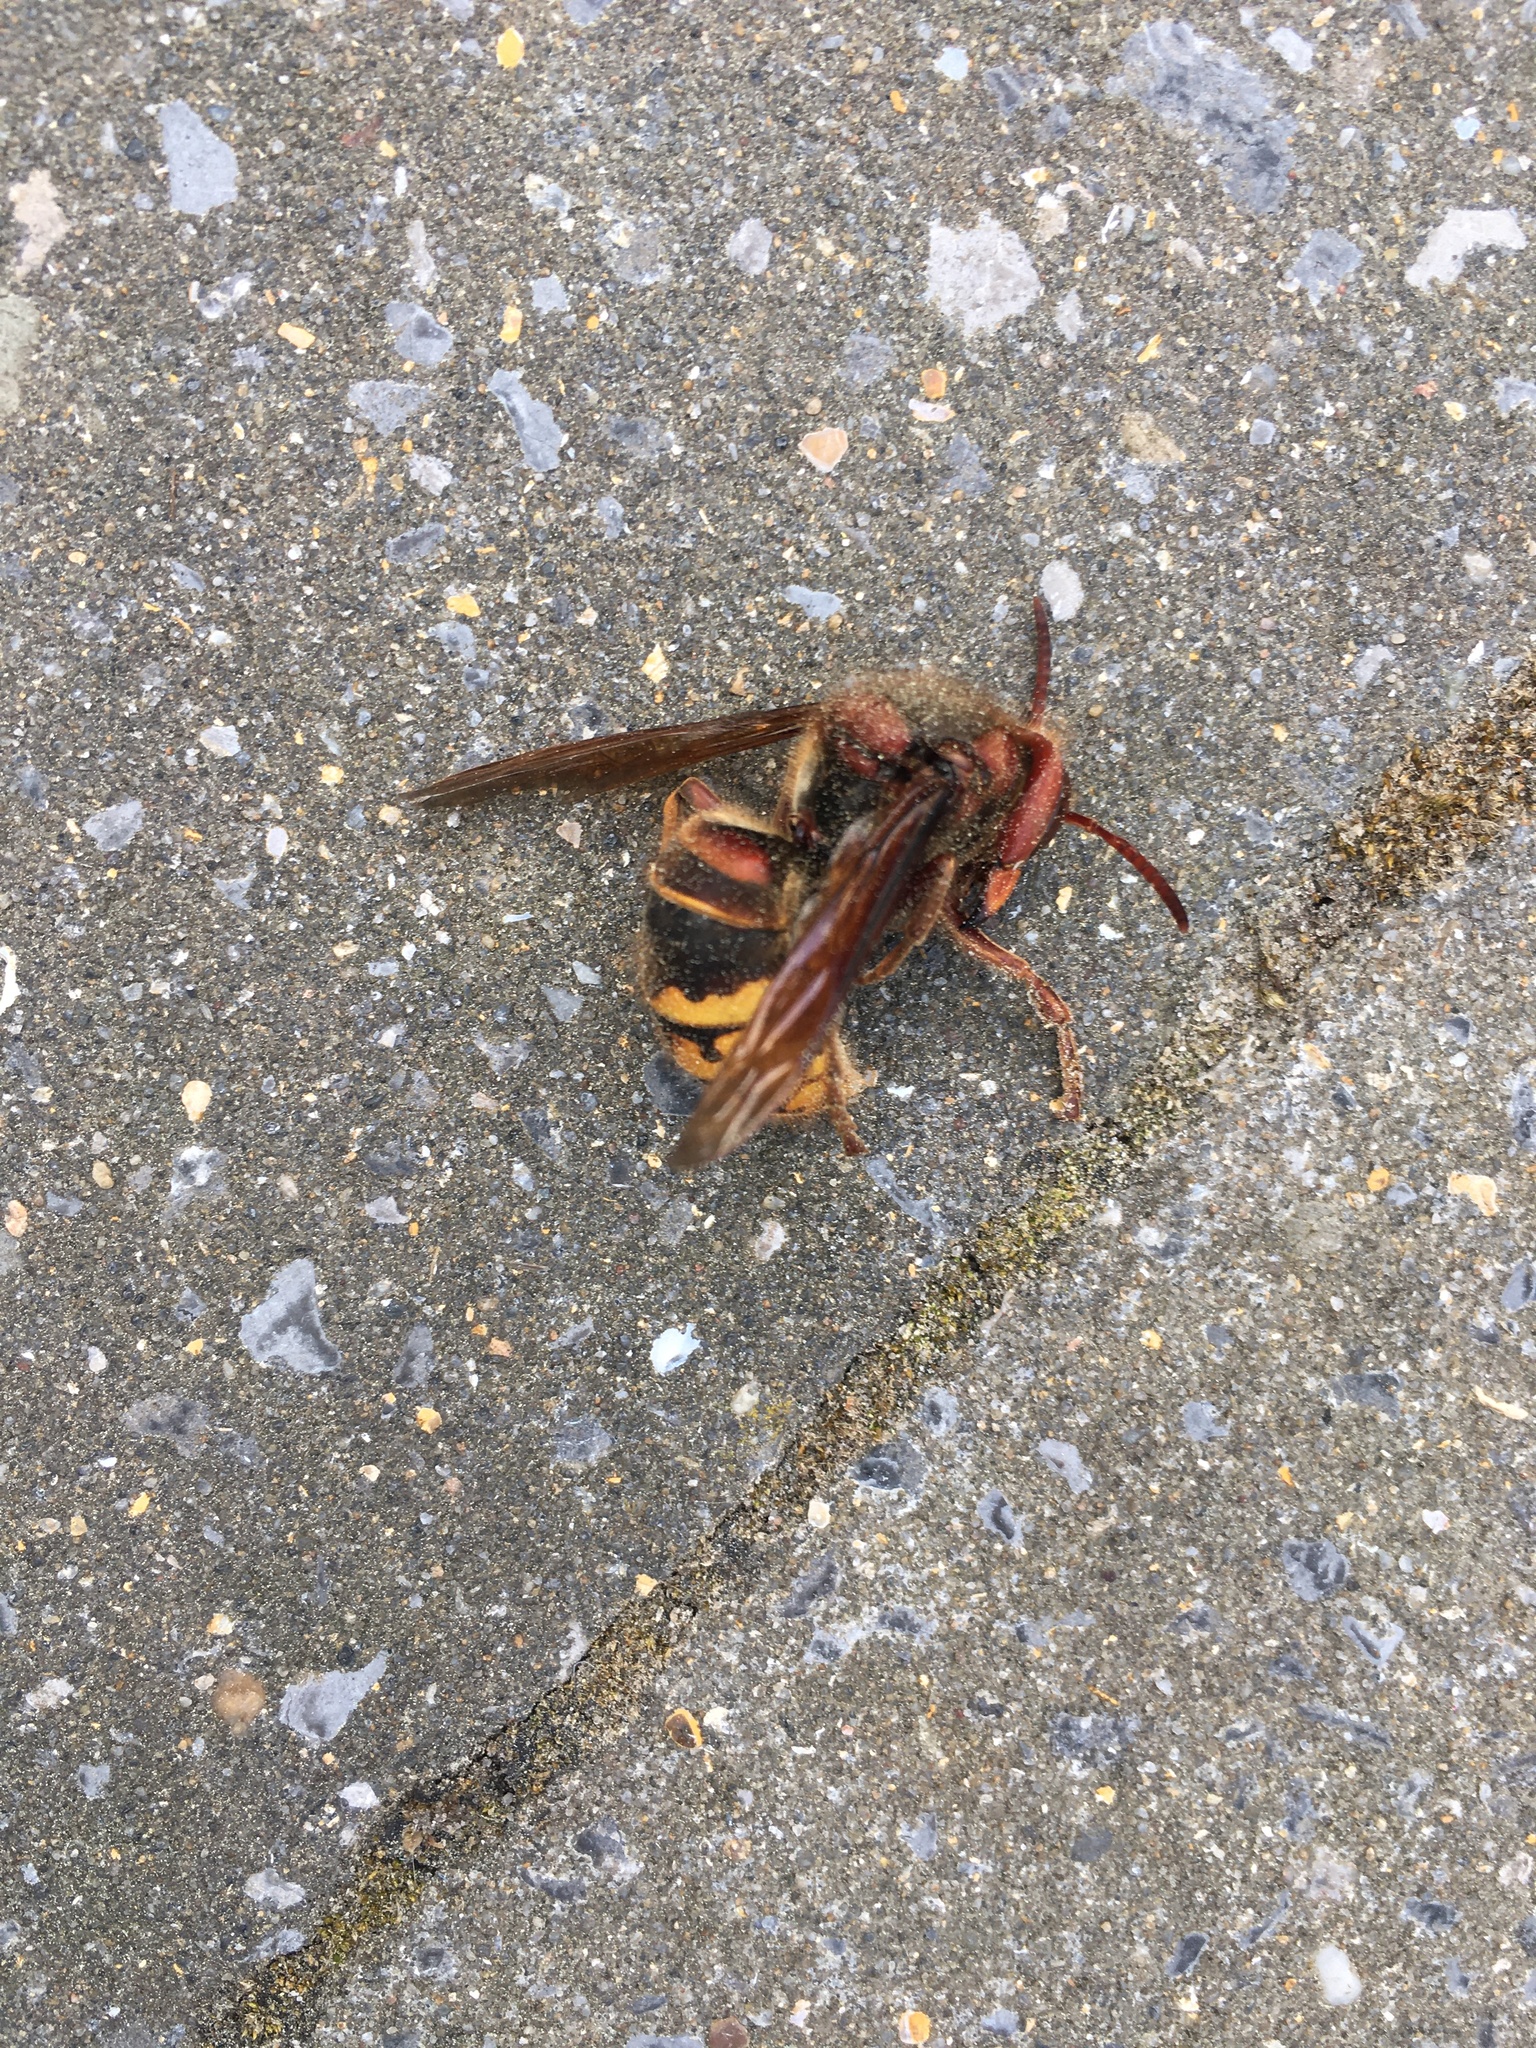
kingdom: Animalia
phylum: Arthropoda
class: Insecta
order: Hymenoptera
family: Vespidae
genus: Vespa
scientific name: Vespa crabro
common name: Hornet
